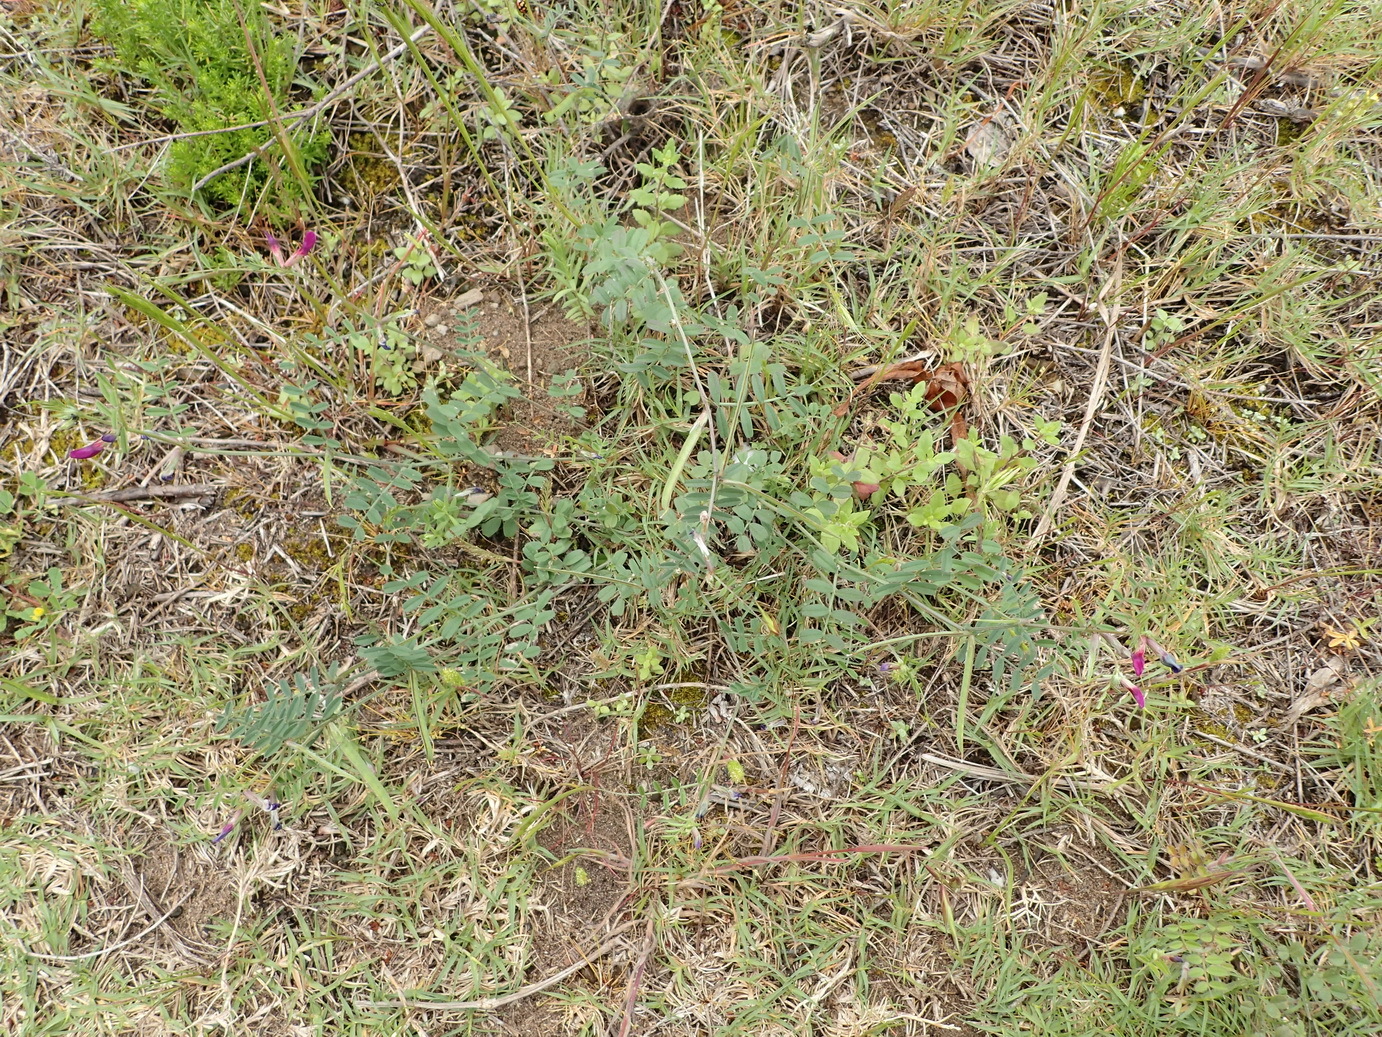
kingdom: Plantae
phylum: Tracheophyta
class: Magnoliopsida
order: Fabales
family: Fabaceae
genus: Vicia
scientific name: Vicia sativa
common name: Garden vetch
